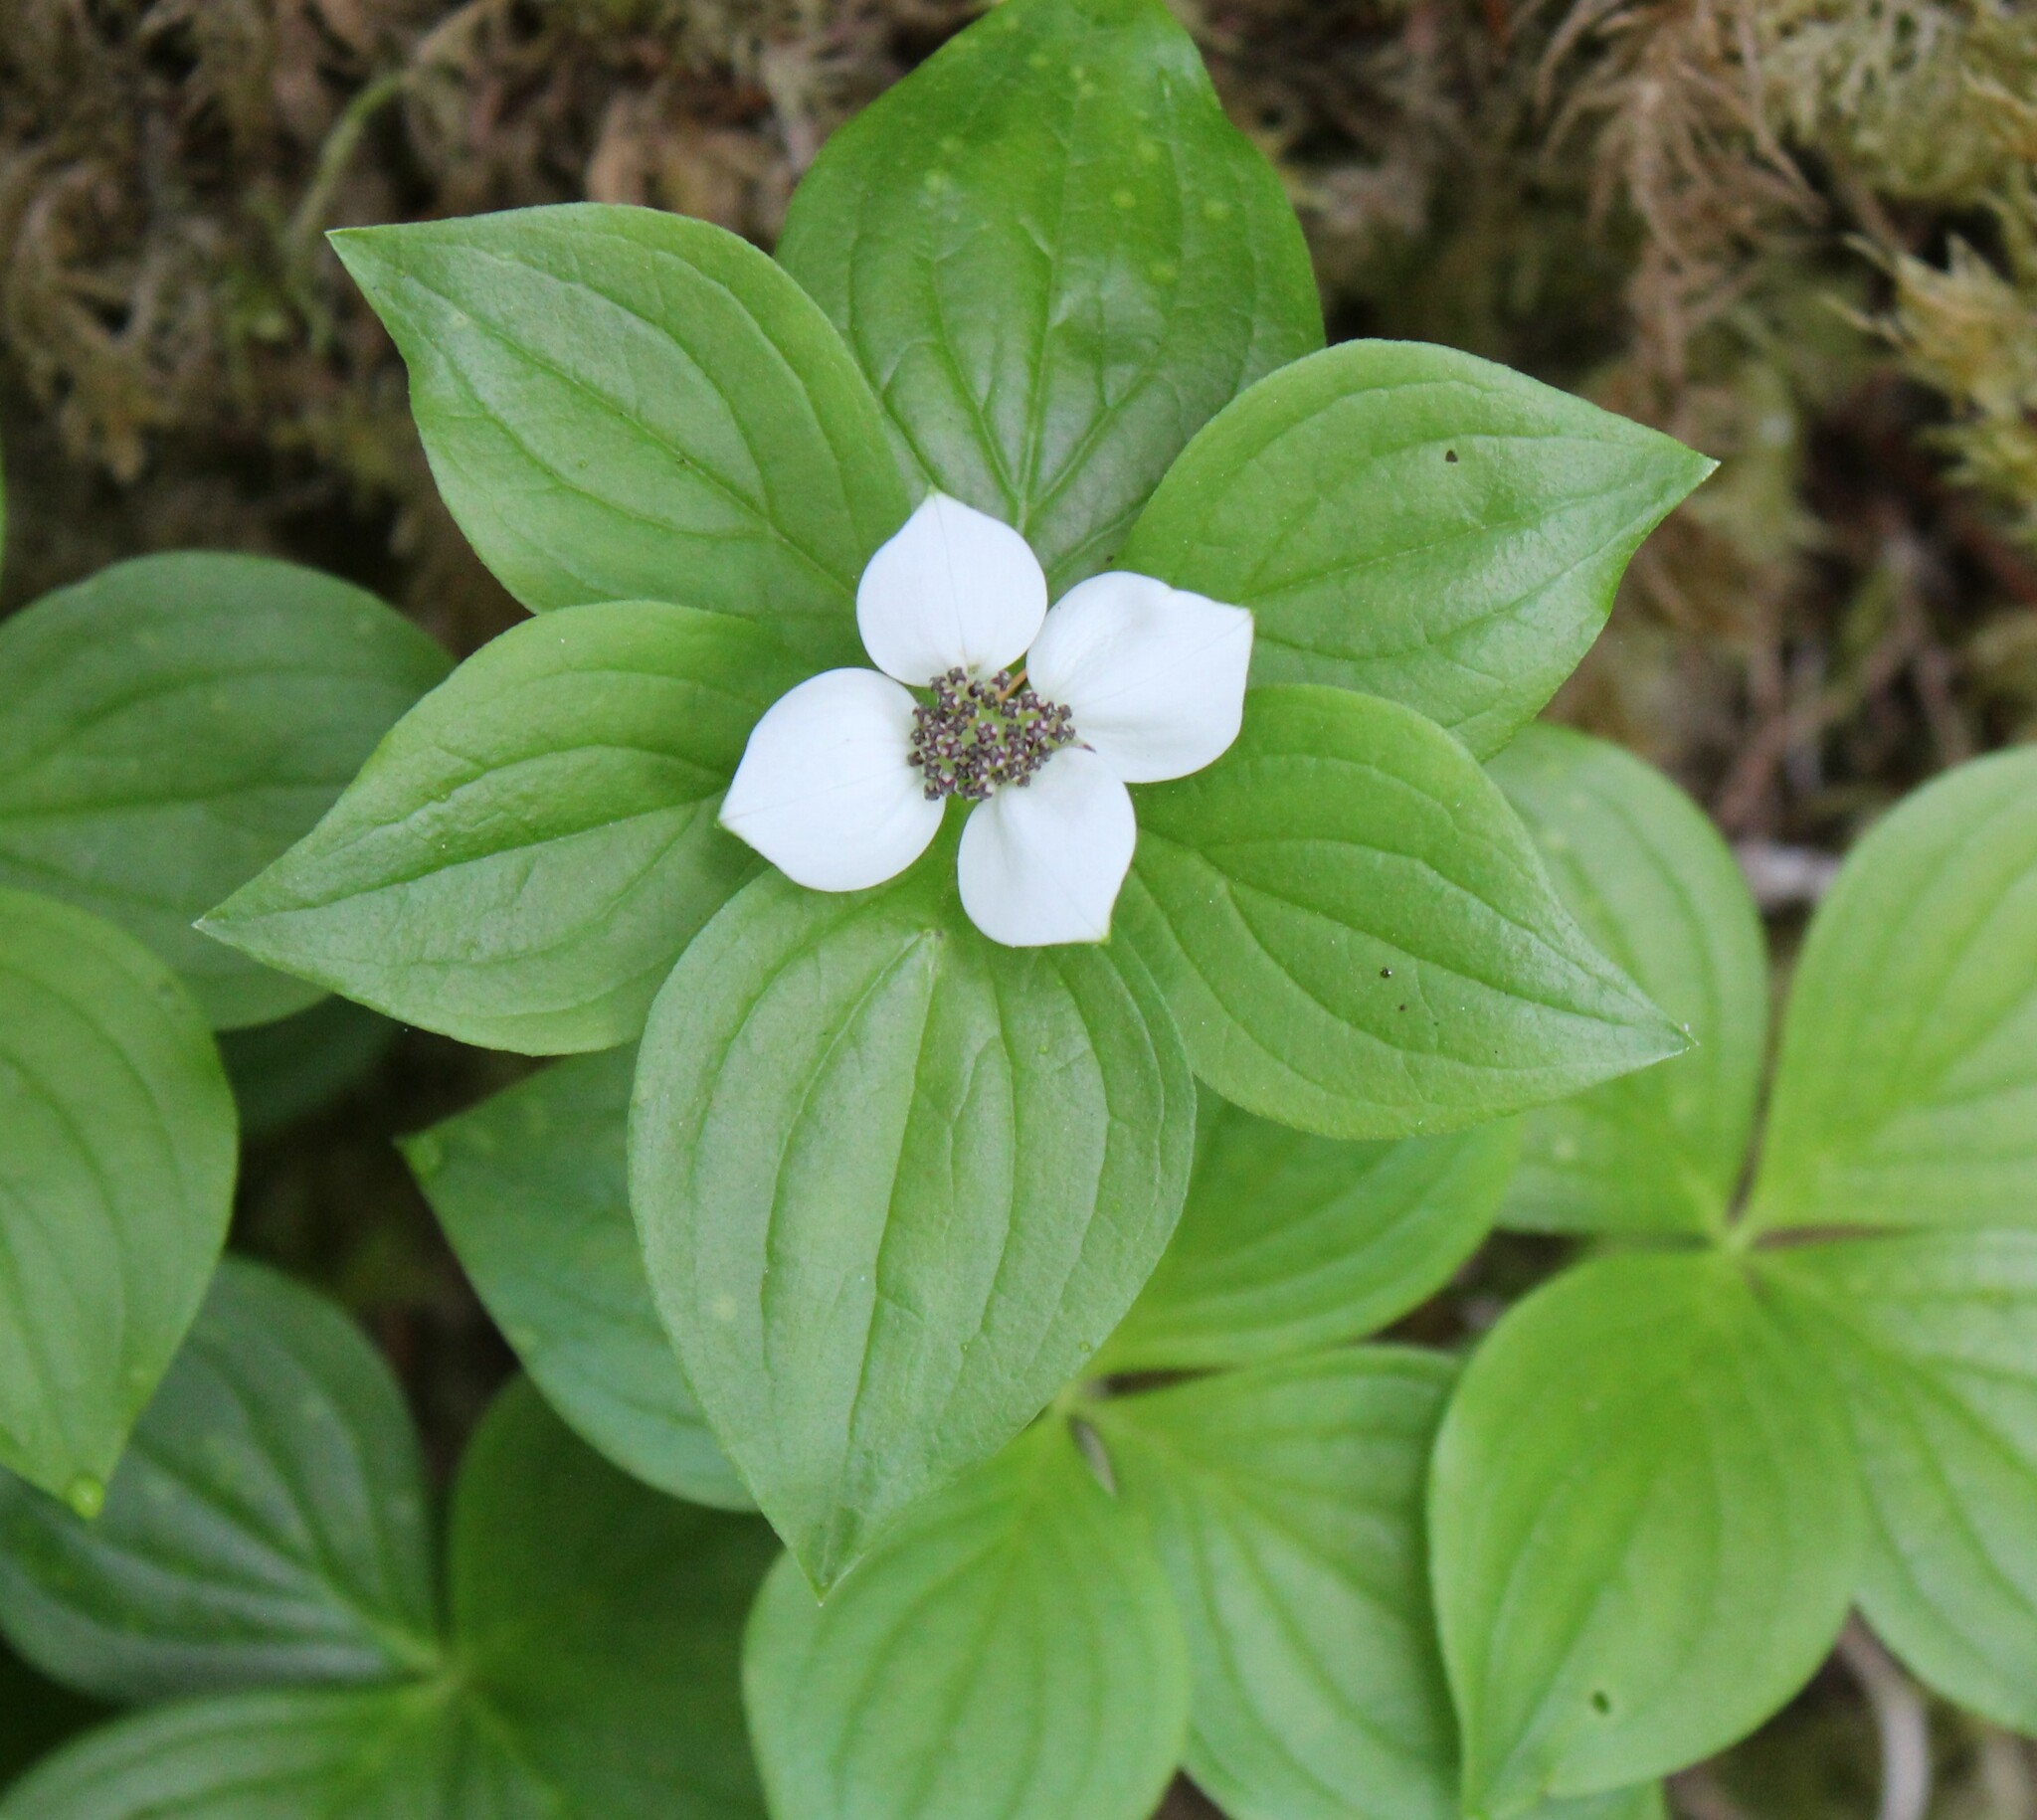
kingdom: Plantae
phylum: Tracheophyta
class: Magnoliopsida
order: Cornales
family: Cornaceae
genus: Cornus
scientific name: Cornus unalaschkensis
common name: Alaska bunchberry
